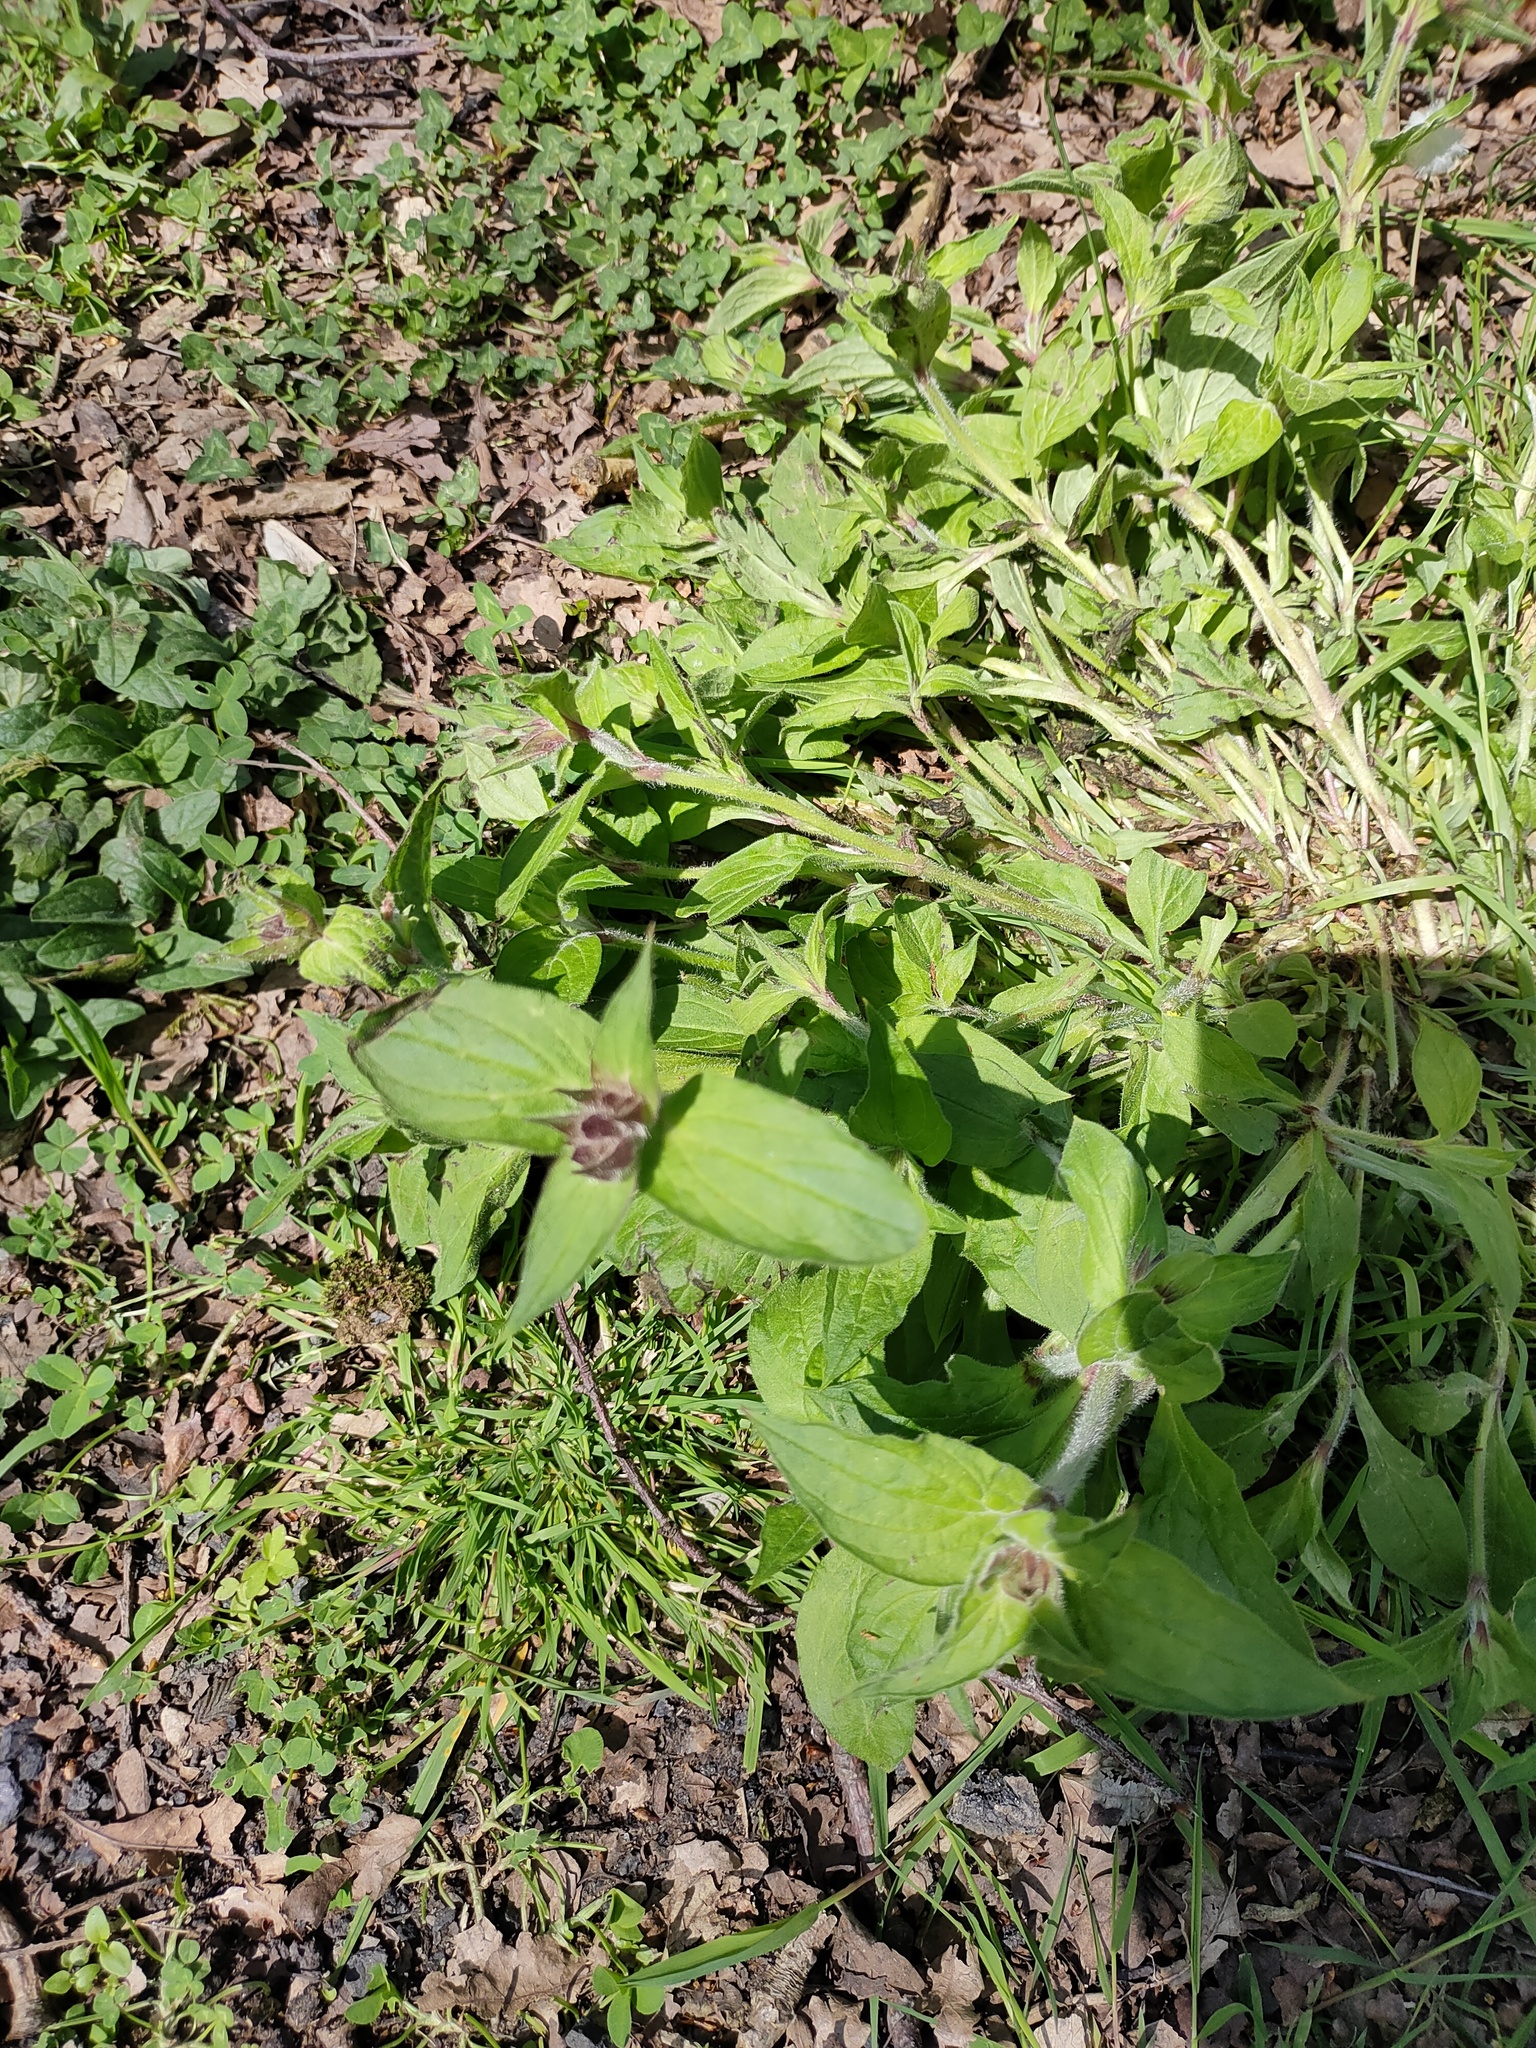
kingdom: Plantae
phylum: Tracheophyta
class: Magnoliopsida
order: Caryophyllales
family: Caryophyllaceae
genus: Silene
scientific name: Silene dioica
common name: Red campion
